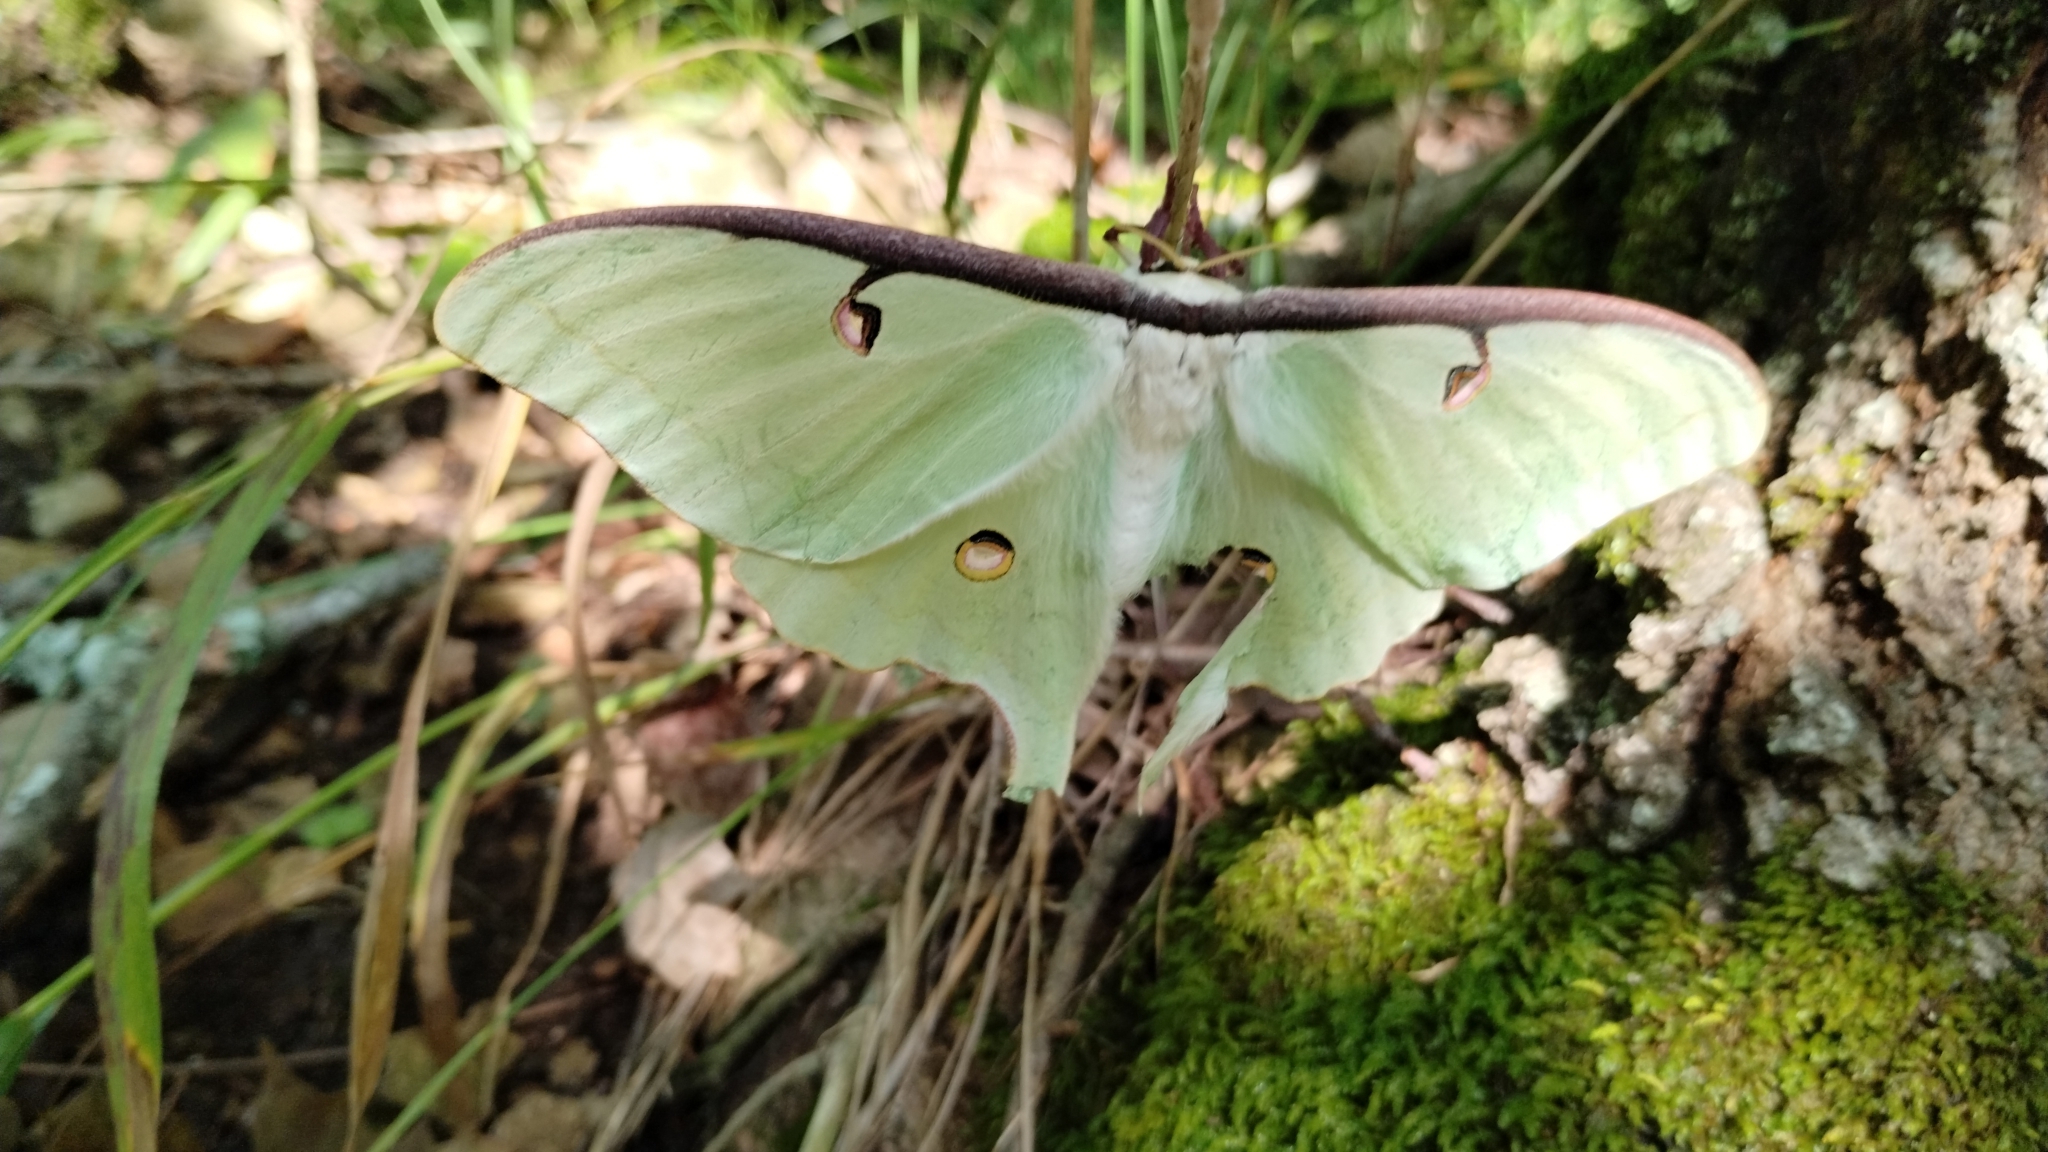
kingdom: Animalia
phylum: Arthropoda
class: Insecta
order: Lepidoptera
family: Saturniidae
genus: Actias
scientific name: Actias luna
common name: Luna moth
